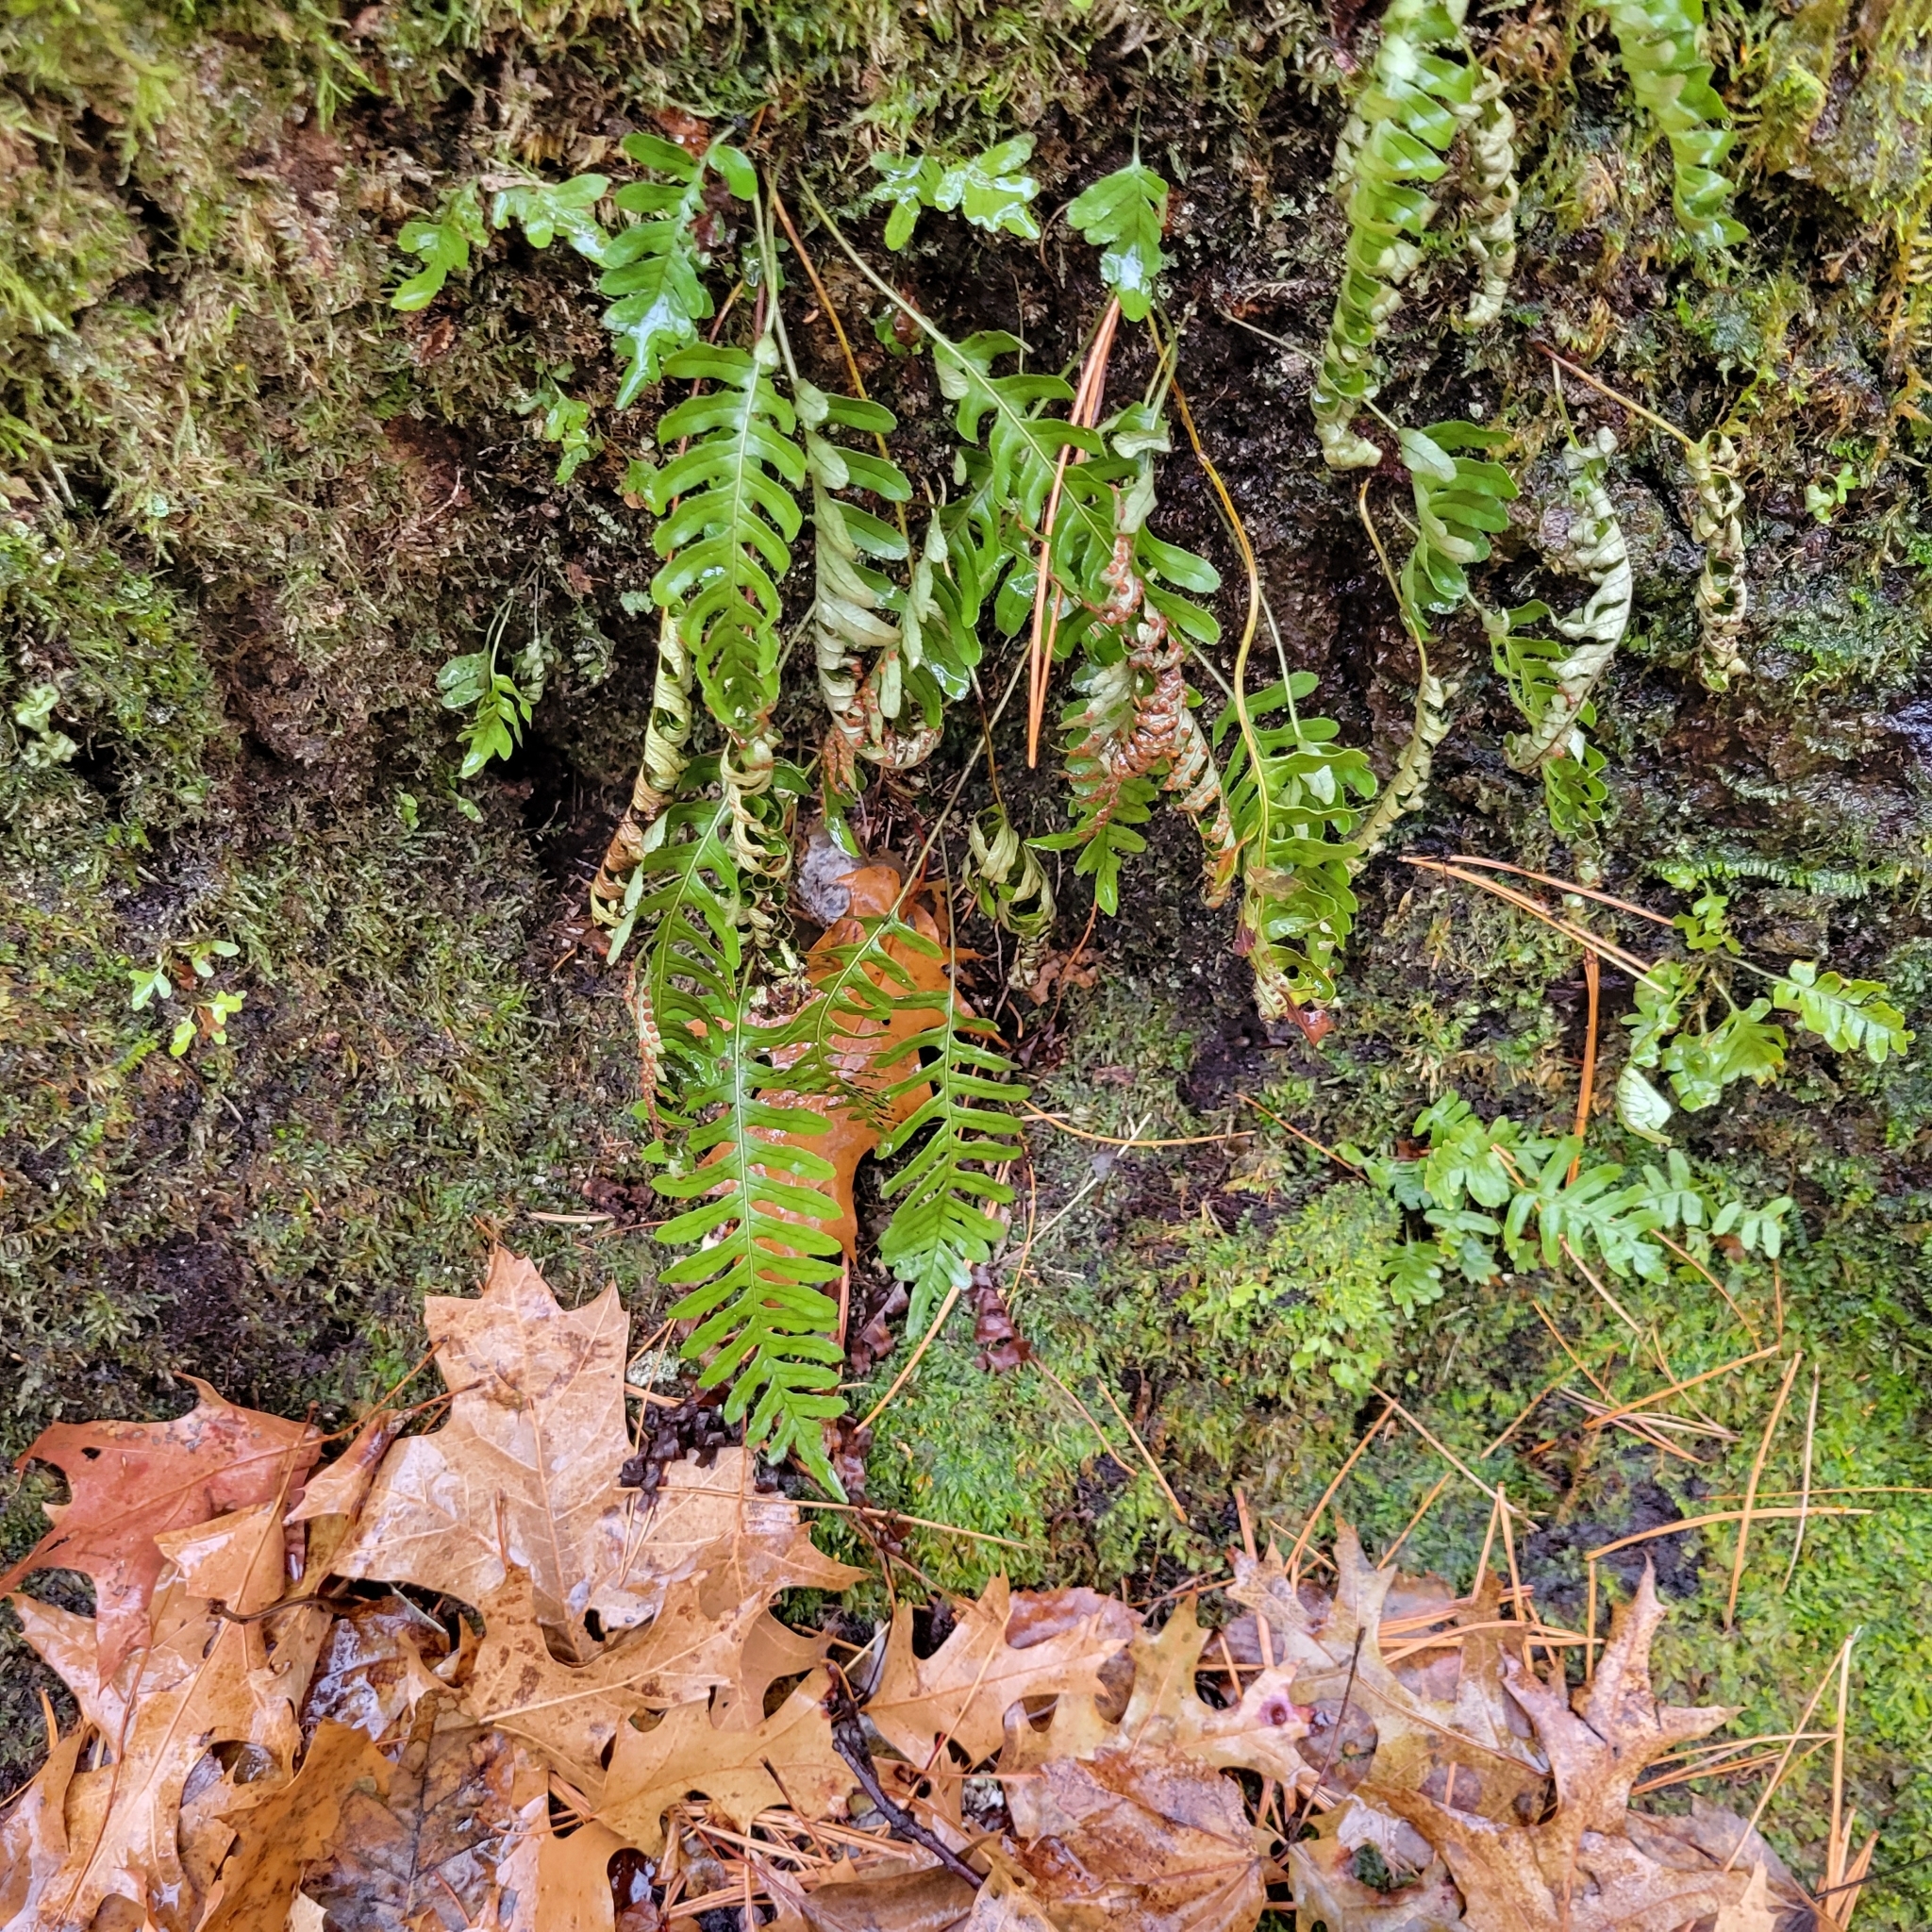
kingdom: Plantae
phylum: Tracheophyta
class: Polypodiopsida
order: Polypodiales
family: Polypodiaceae
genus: Polypodium
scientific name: Polypodium virginianum
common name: American wall fern
